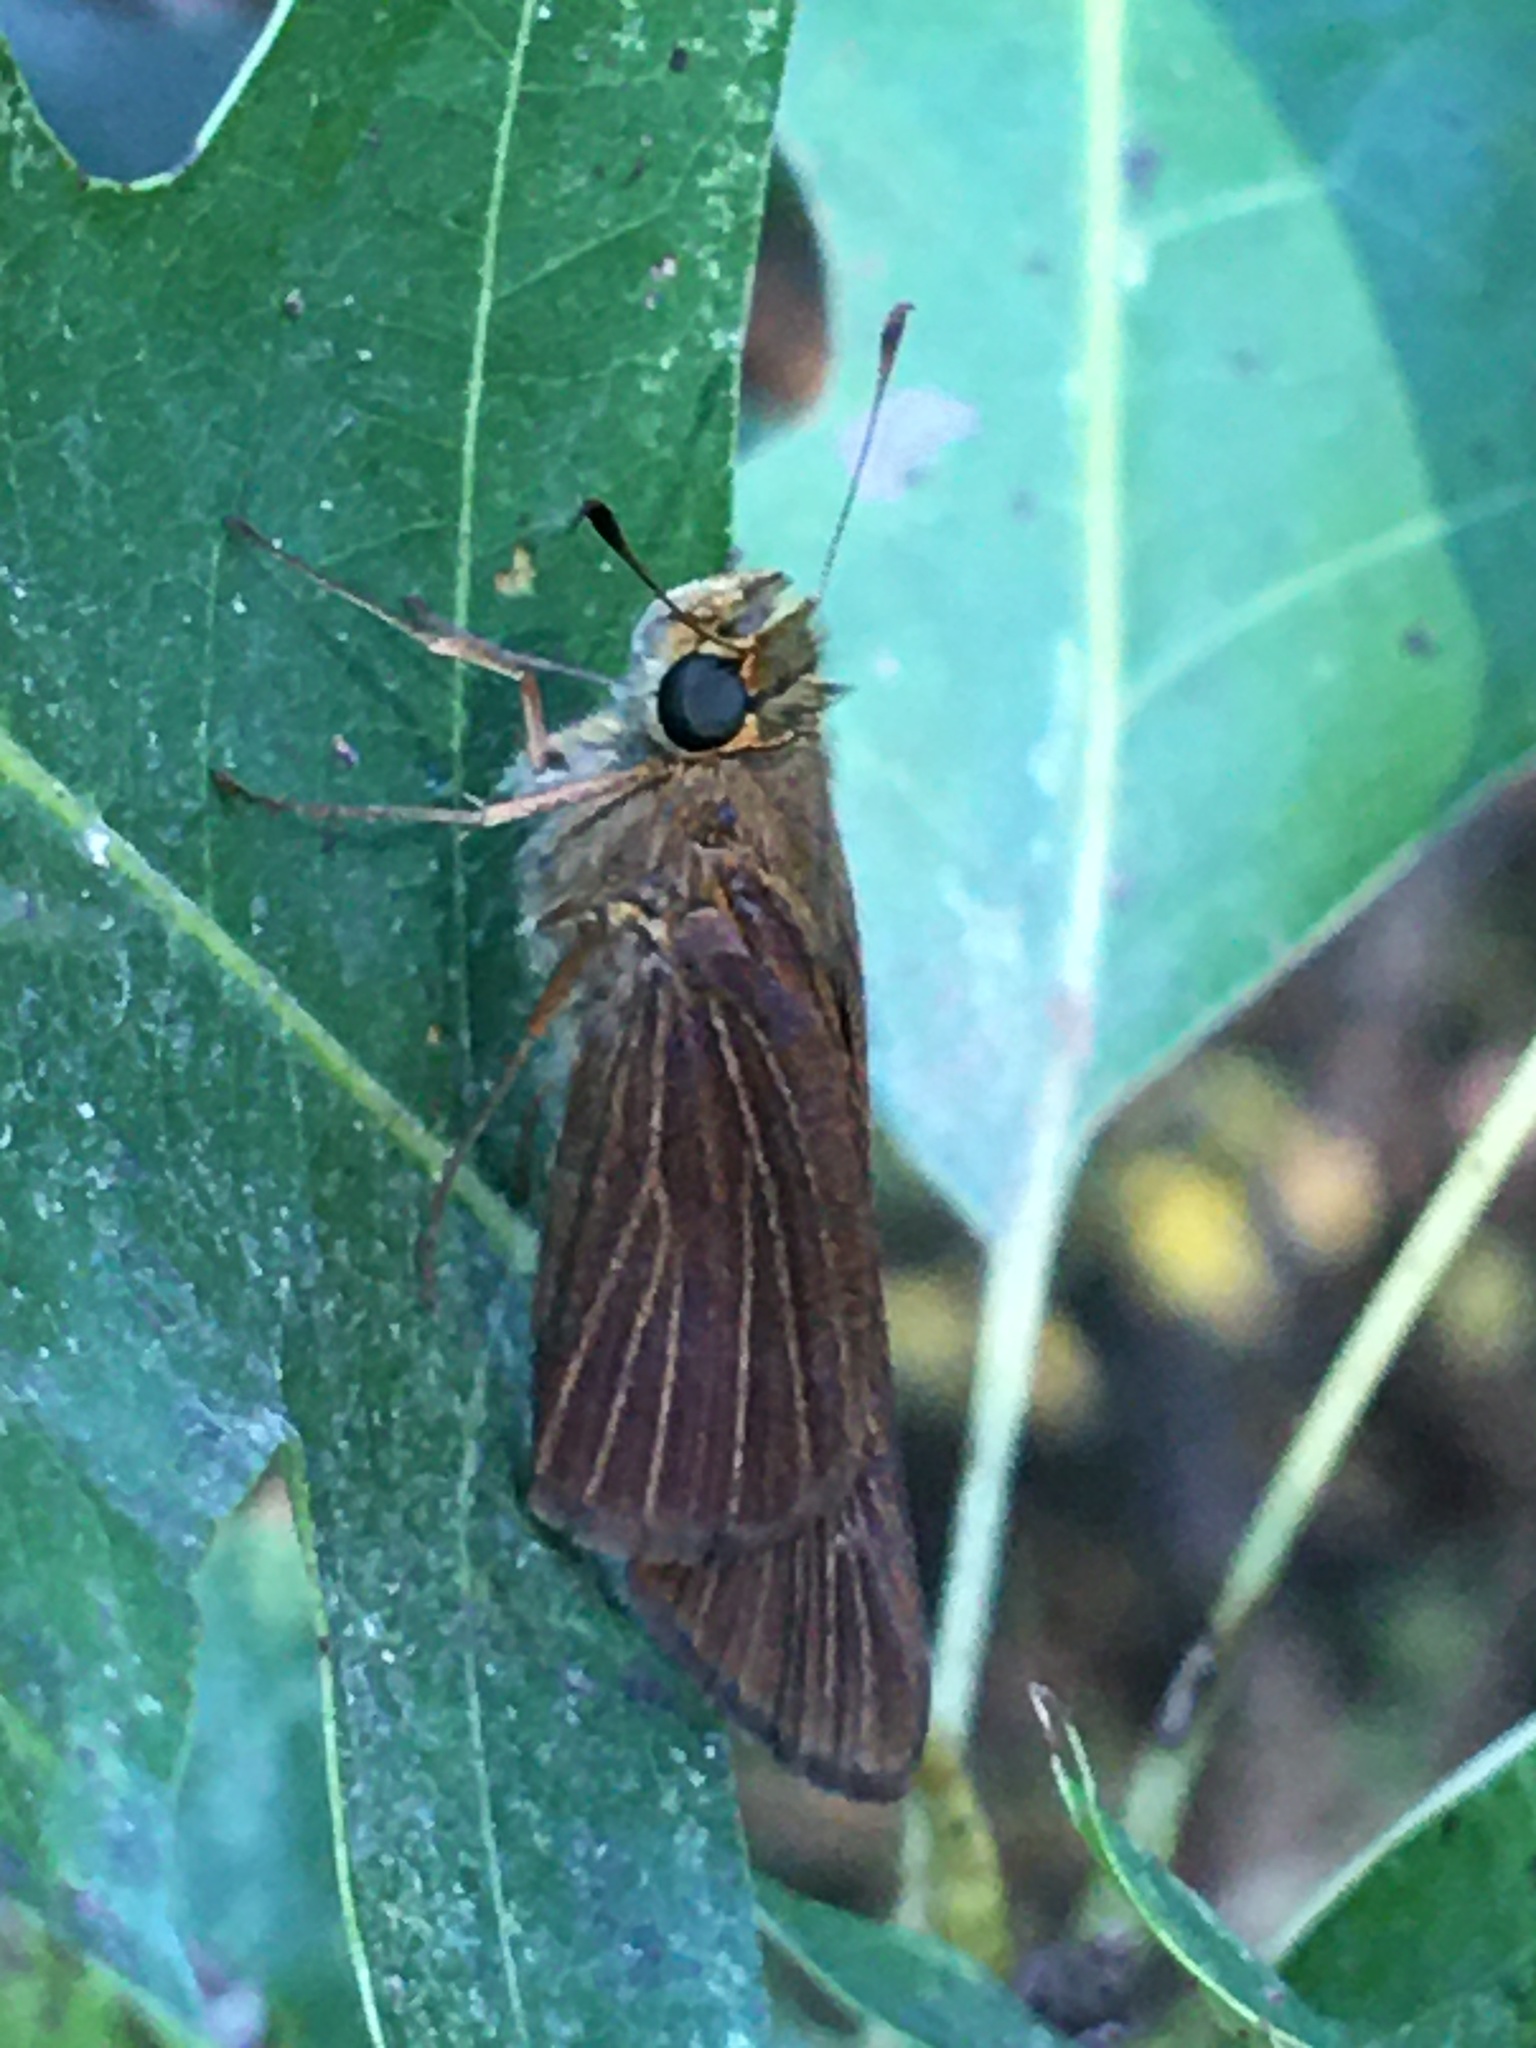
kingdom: Animalia
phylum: Arthropoda
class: Insecta
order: Lepidoptera
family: Hesperiidae
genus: Panoquina
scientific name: Panoquina ocola
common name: Ocola skipper
